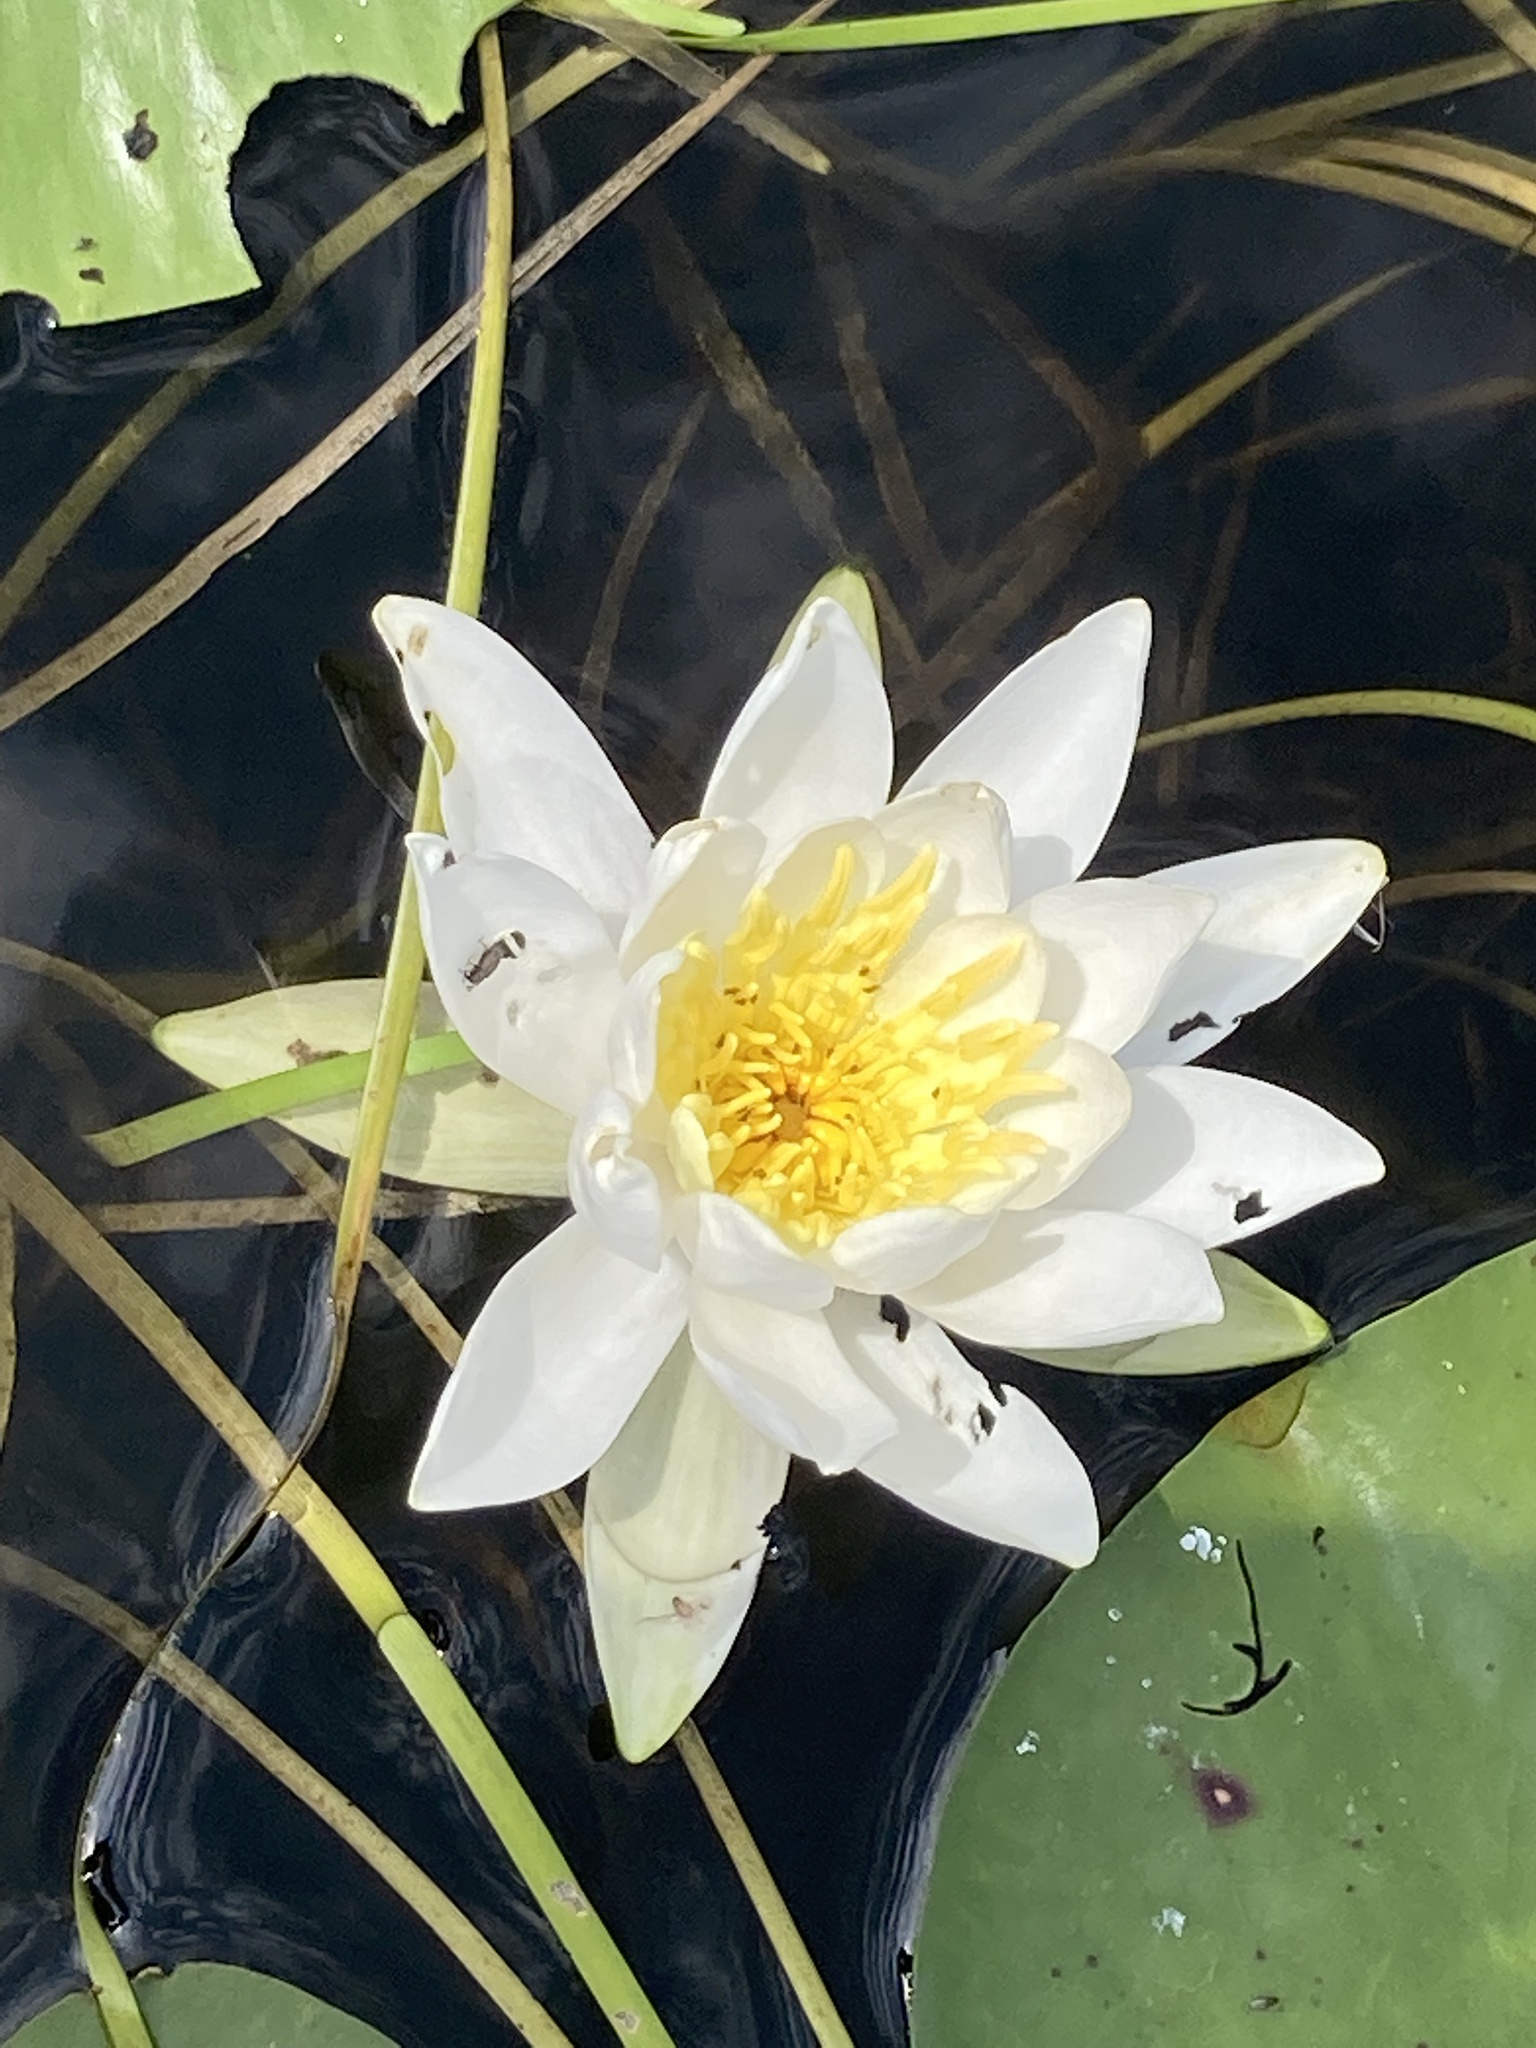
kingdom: Plantae
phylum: Tracheophyta
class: Magnoliopsida
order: Nymphaeales
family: Nymphaeaceae
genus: Nymphaea
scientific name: Nymphaea odorata
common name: Fragrant water-lily
